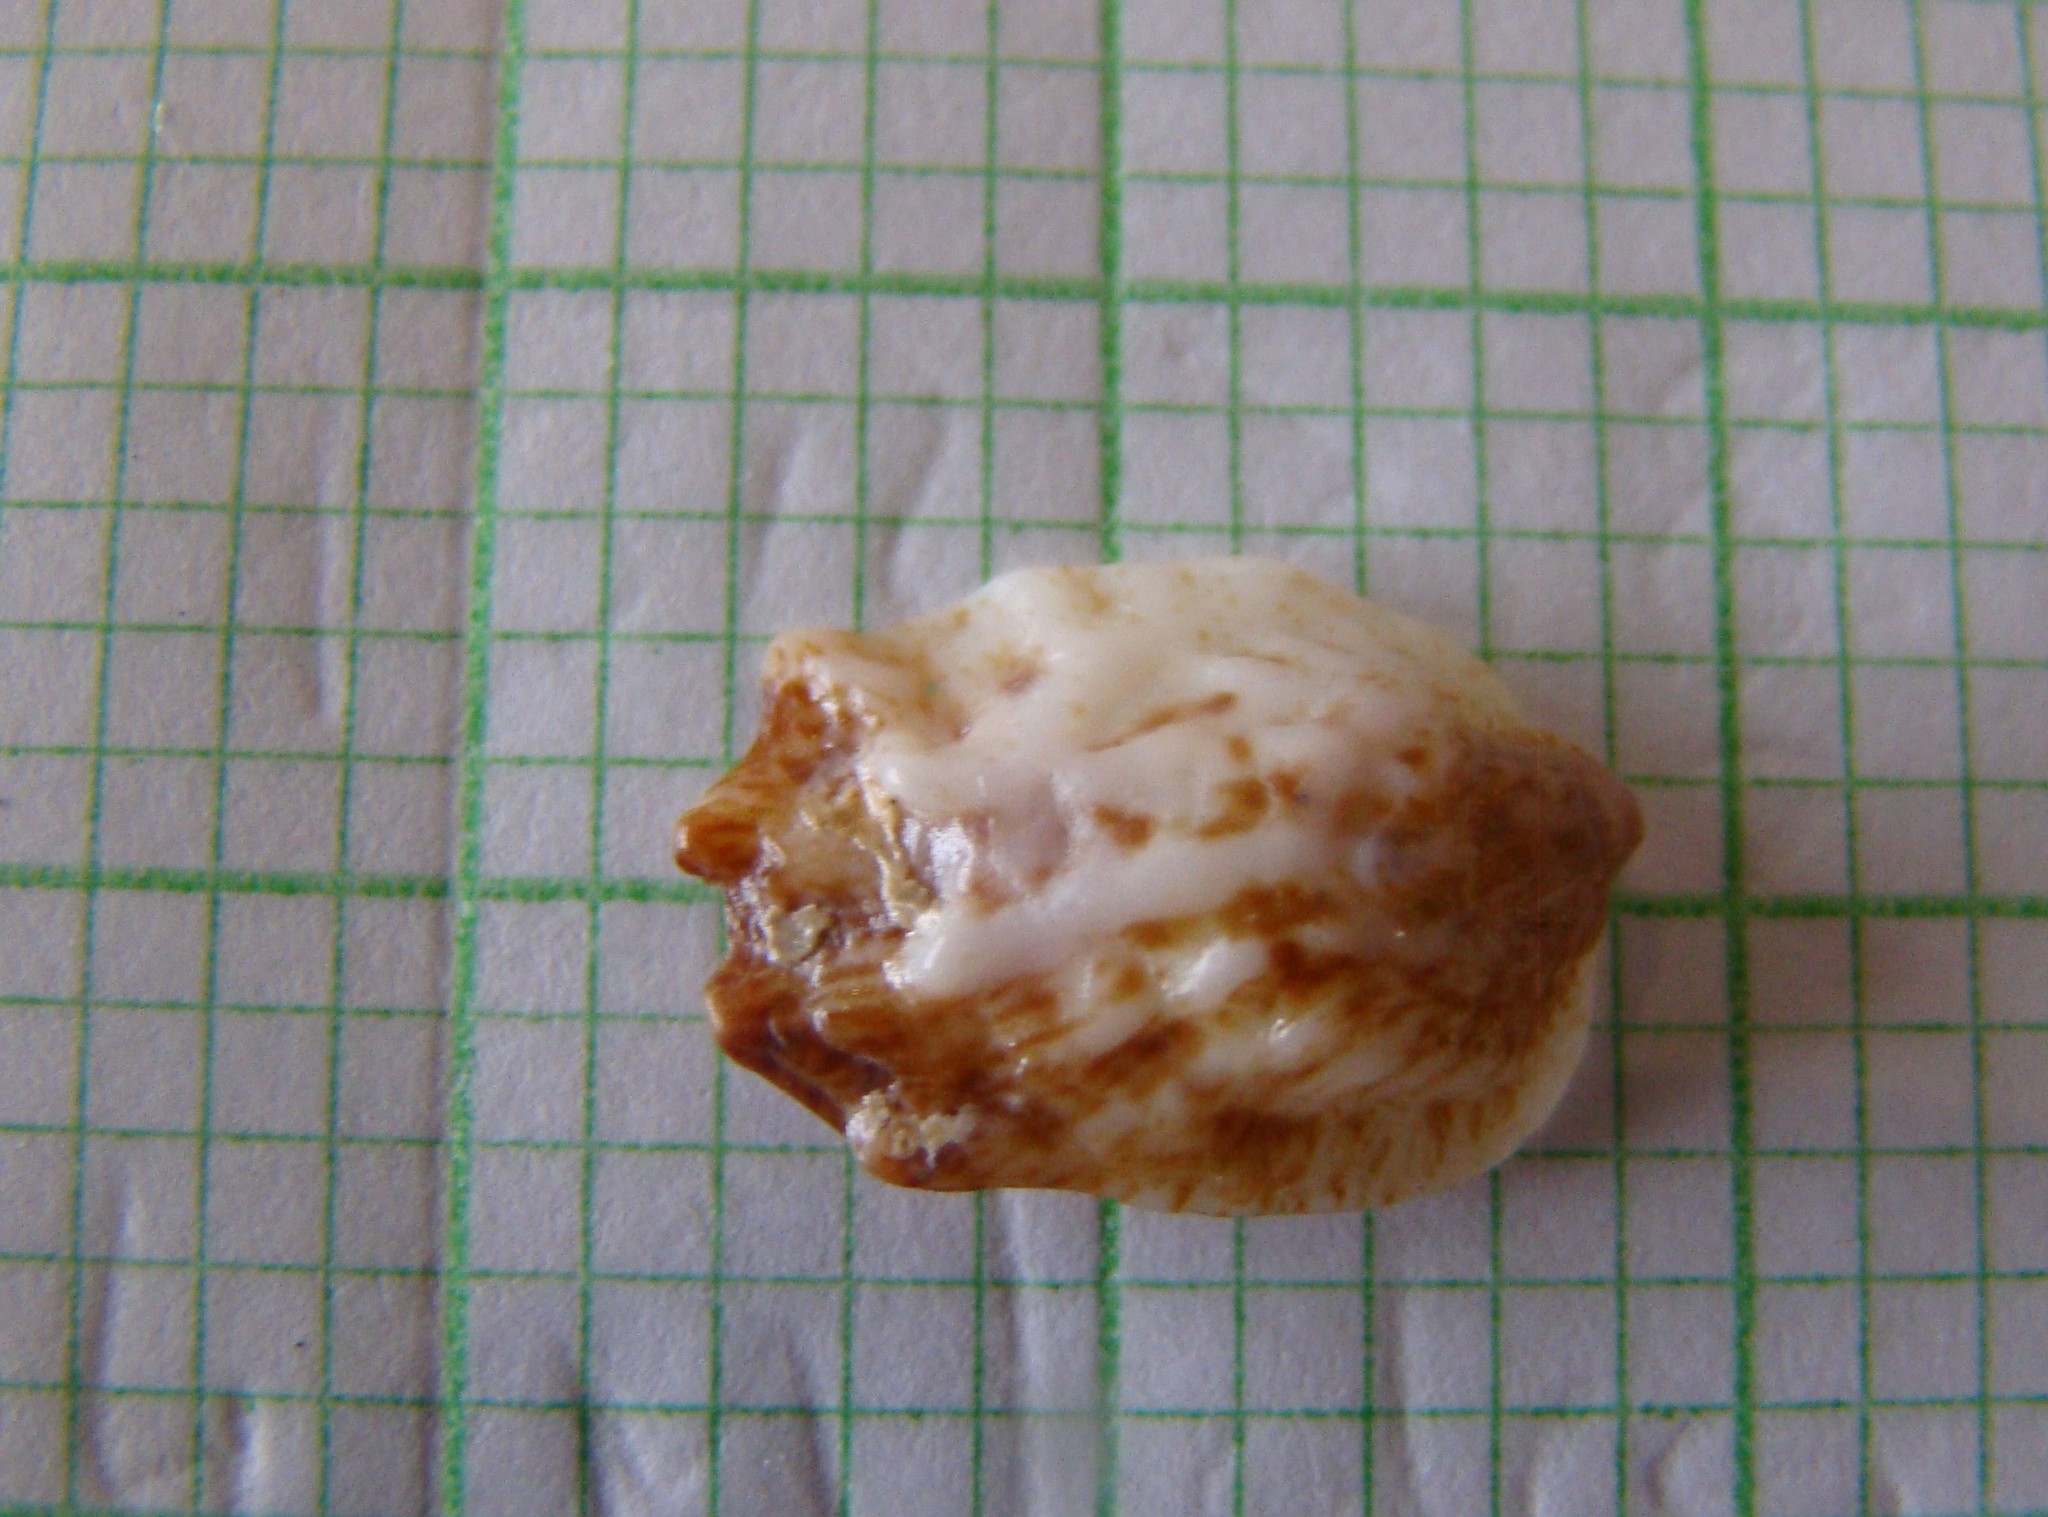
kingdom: Animalia
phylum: Mollusca
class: Gastropoda
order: Littorinimorpha
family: Calyptraeidae
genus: Maoricrypta
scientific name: Maoricrypta costata
